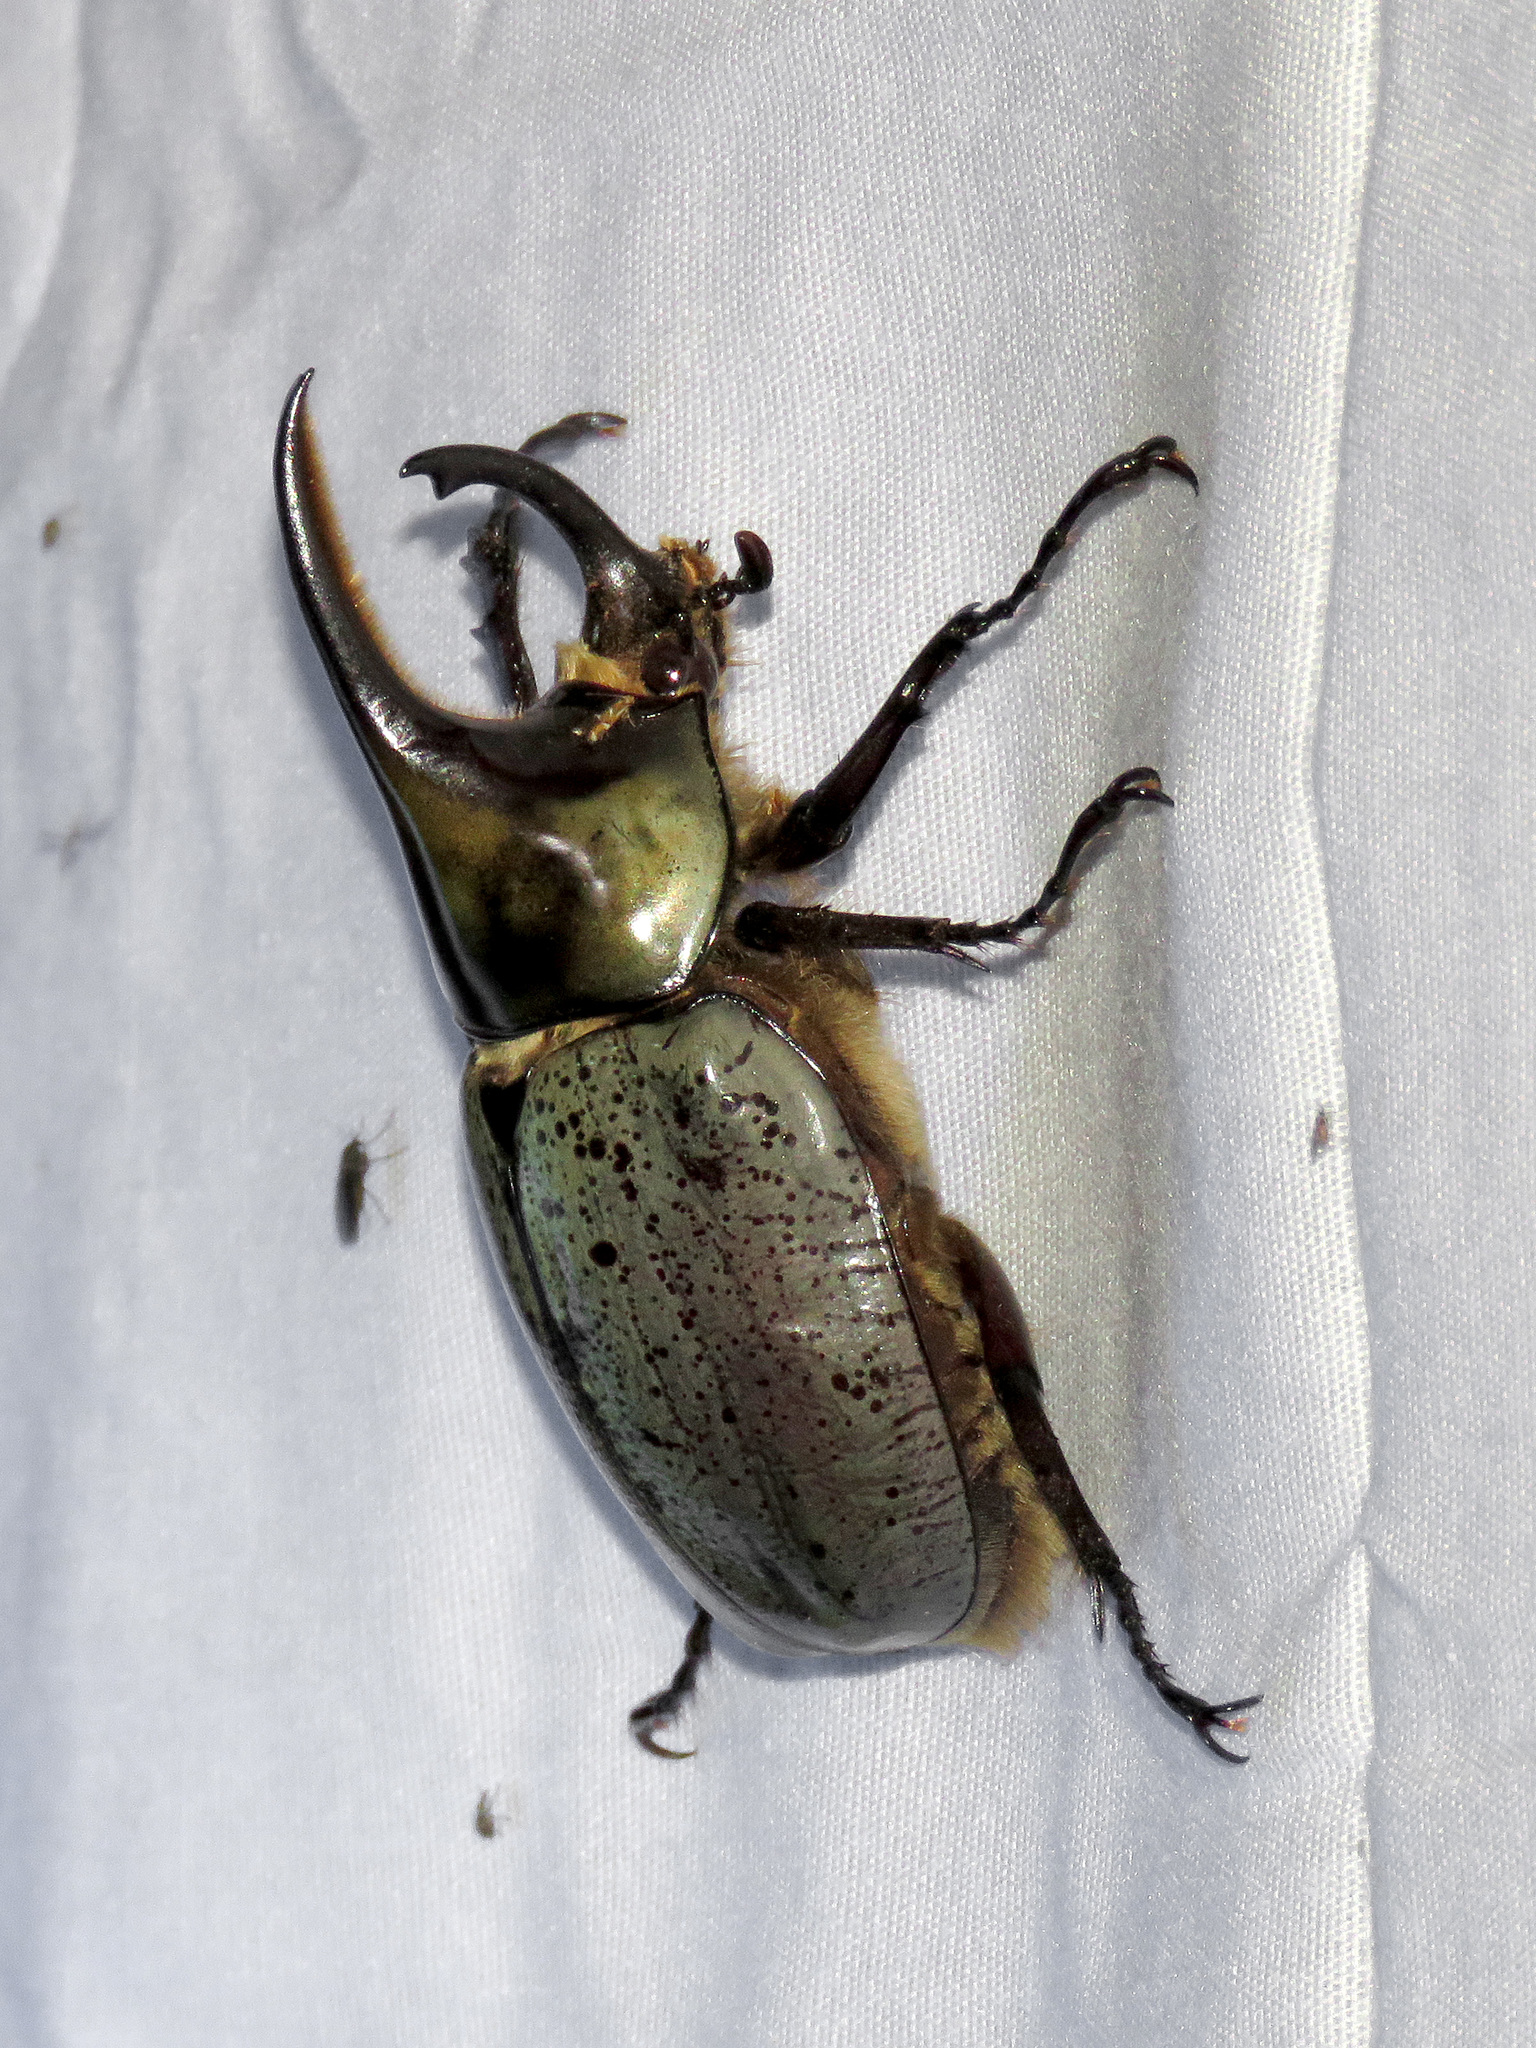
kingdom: Animalia
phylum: Arthropoda
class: Insecta
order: Coleoptera
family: Scarabaeidae
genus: Dynastes
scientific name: Dynastes grantii
